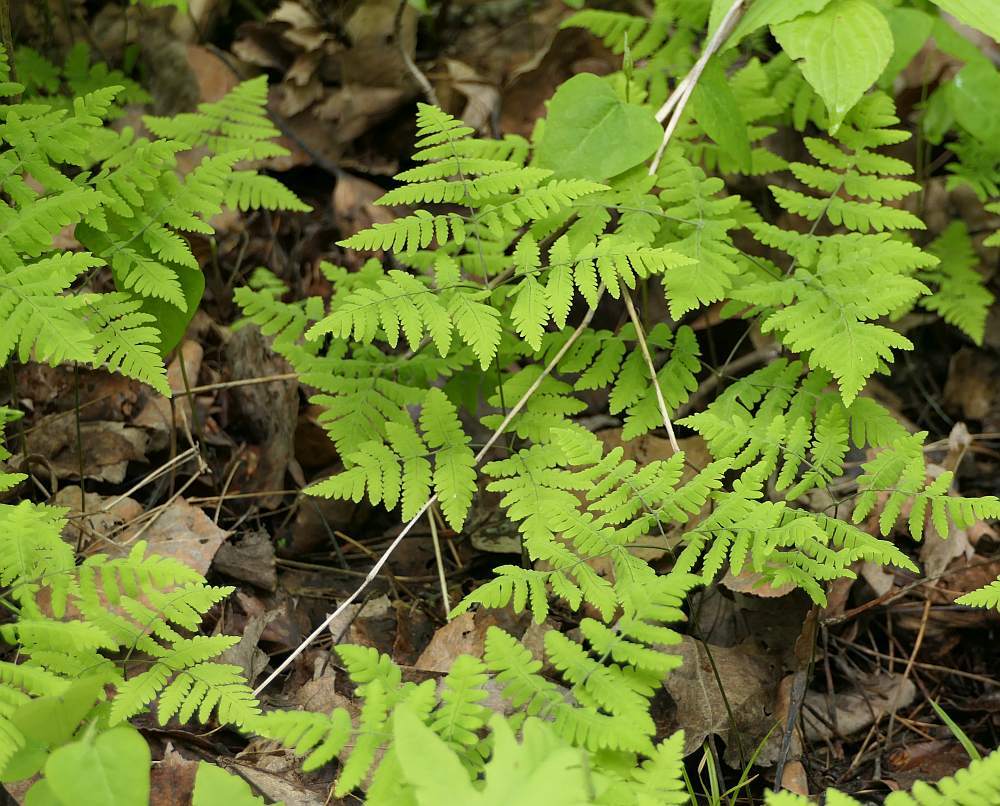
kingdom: Plantae
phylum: Tracheophyta
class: Polypodiopsida
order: Polypodiales
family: Cystopteridaceae
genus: Gymnocarpium
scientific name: Gymnocarpium dryopteris
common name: Oak fern
